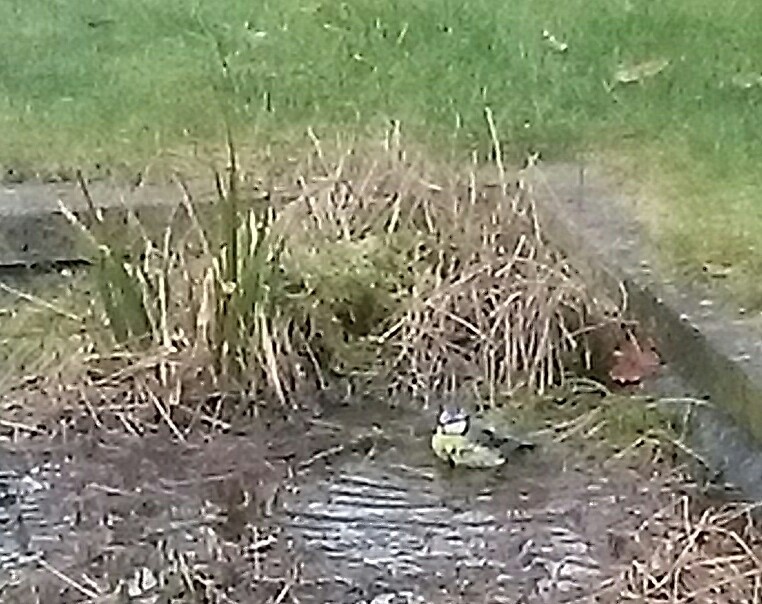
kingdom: Animalia
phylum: Chordata
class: Aves
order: Passeriformes
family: Paridae
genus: Cyanistes
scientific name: Cyanistes caeruleus
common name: Eurasian blue tit
